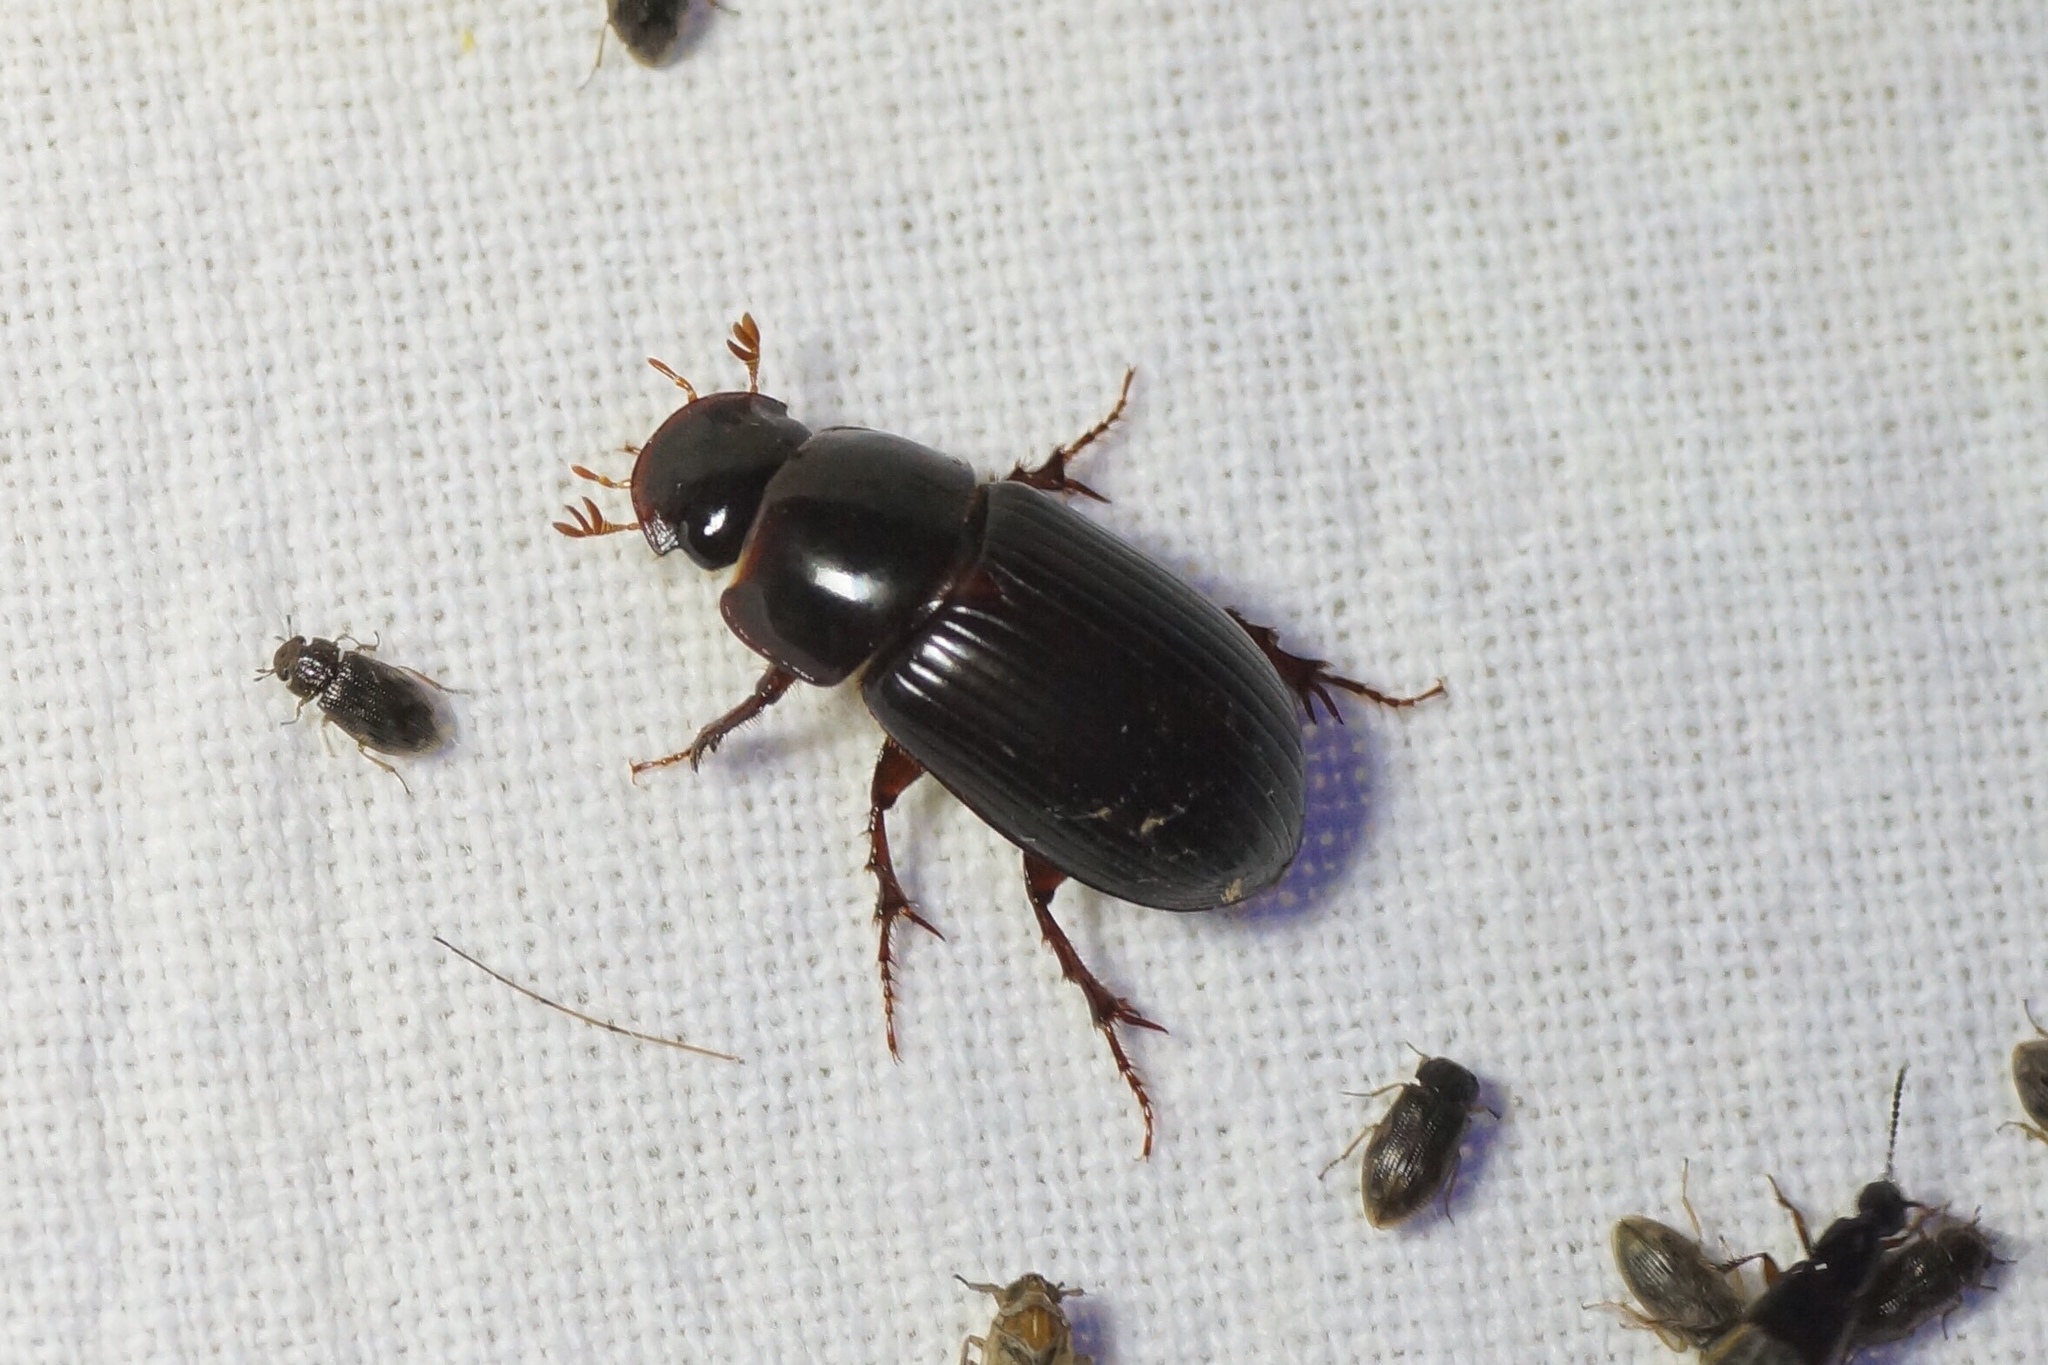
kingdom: Animalia
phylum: Arthropoda
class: Insecta
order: Coleoptera
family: Scarabaeidae
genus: Acrossus
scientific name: Acrossus rufipes
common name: Night-flying dung beetle
